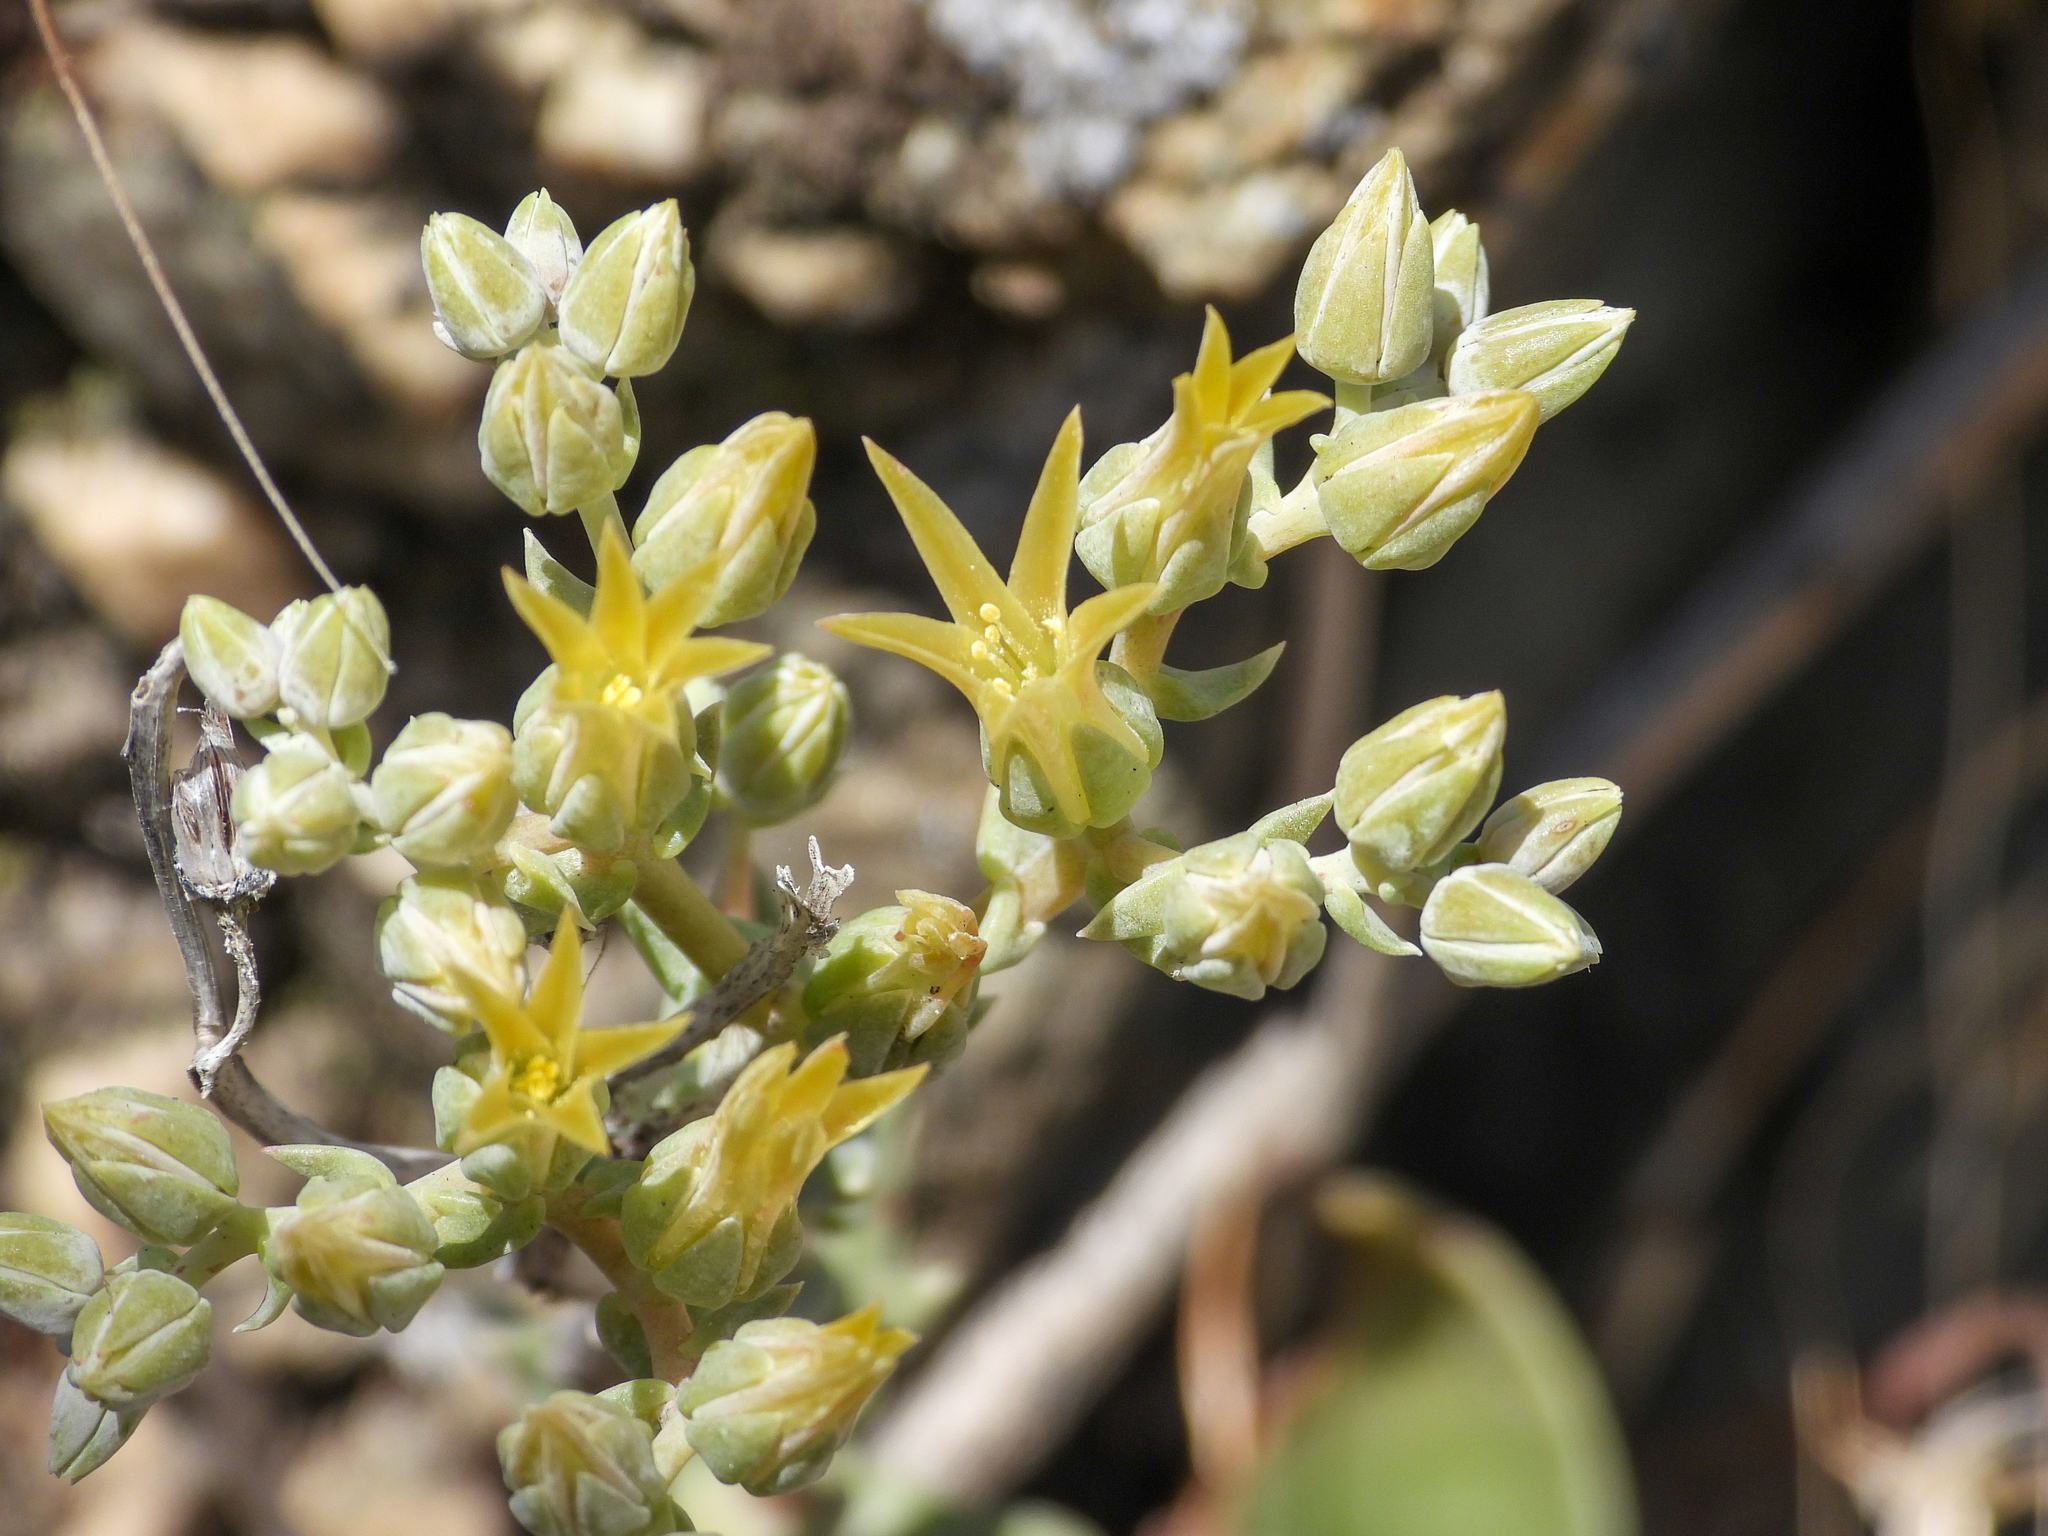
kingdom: Plantae
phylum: Tracheophyta
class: Magnoliopsida
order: Saxifragales
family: Crassulaceae
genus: Dudleya
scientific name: Dudleya abramsii
